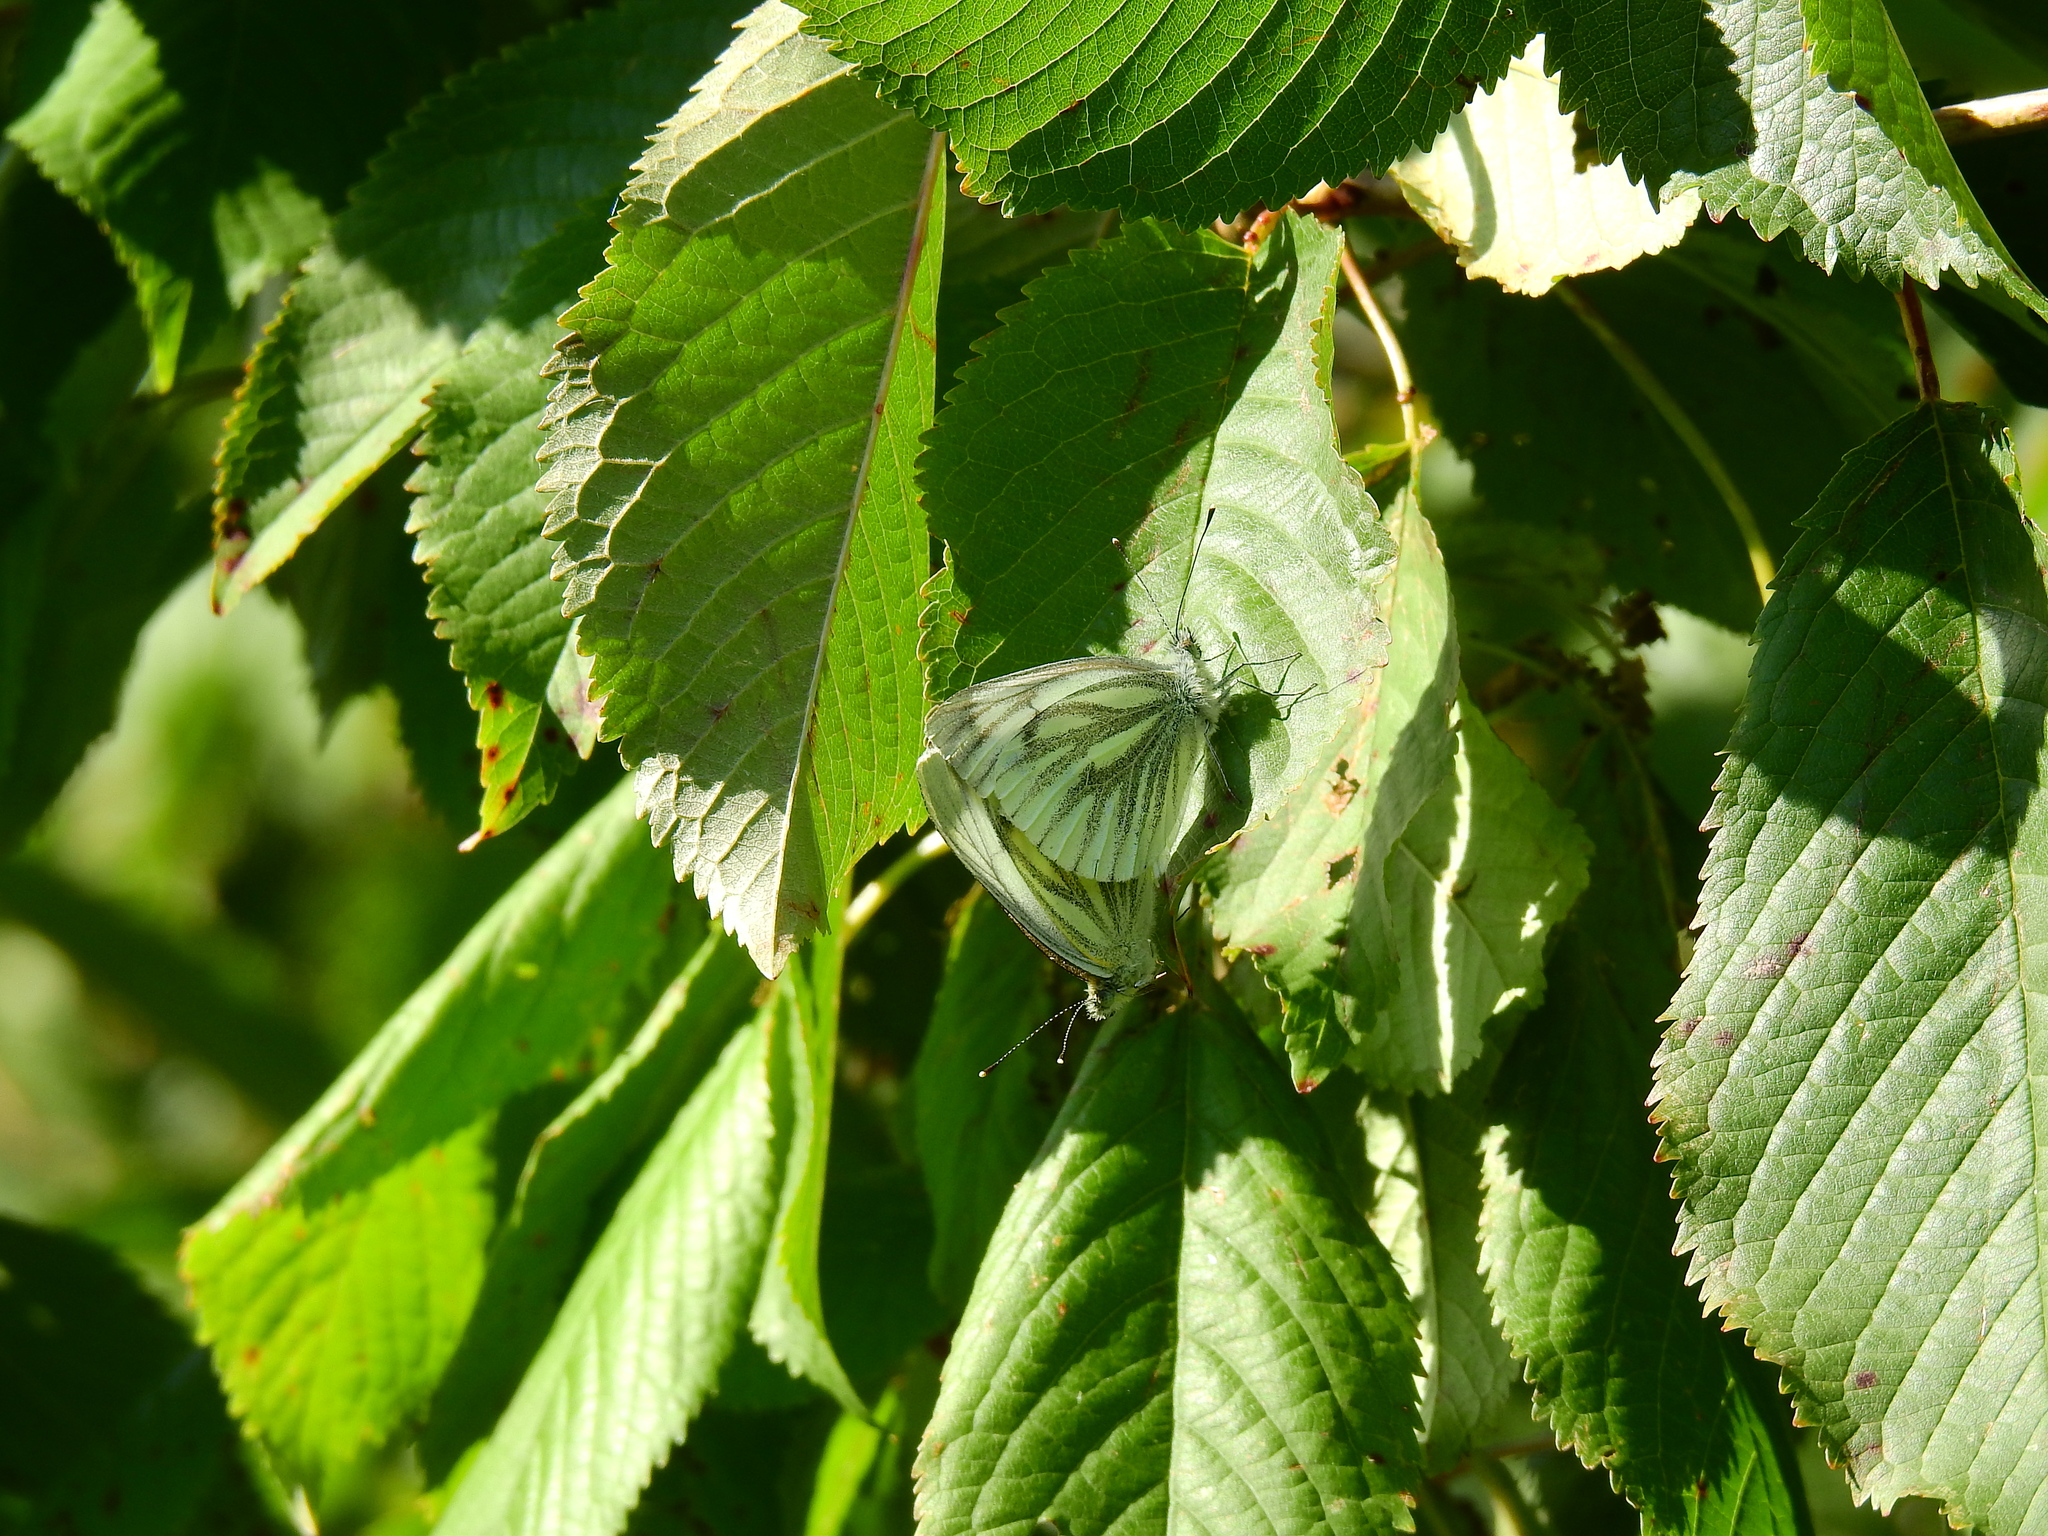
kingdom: Animalia
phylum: Arthropoda
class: Insecta
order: Lepidoptera
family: Pieridae
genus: Pieris
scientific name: Pieris napi
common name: Green-veined white
